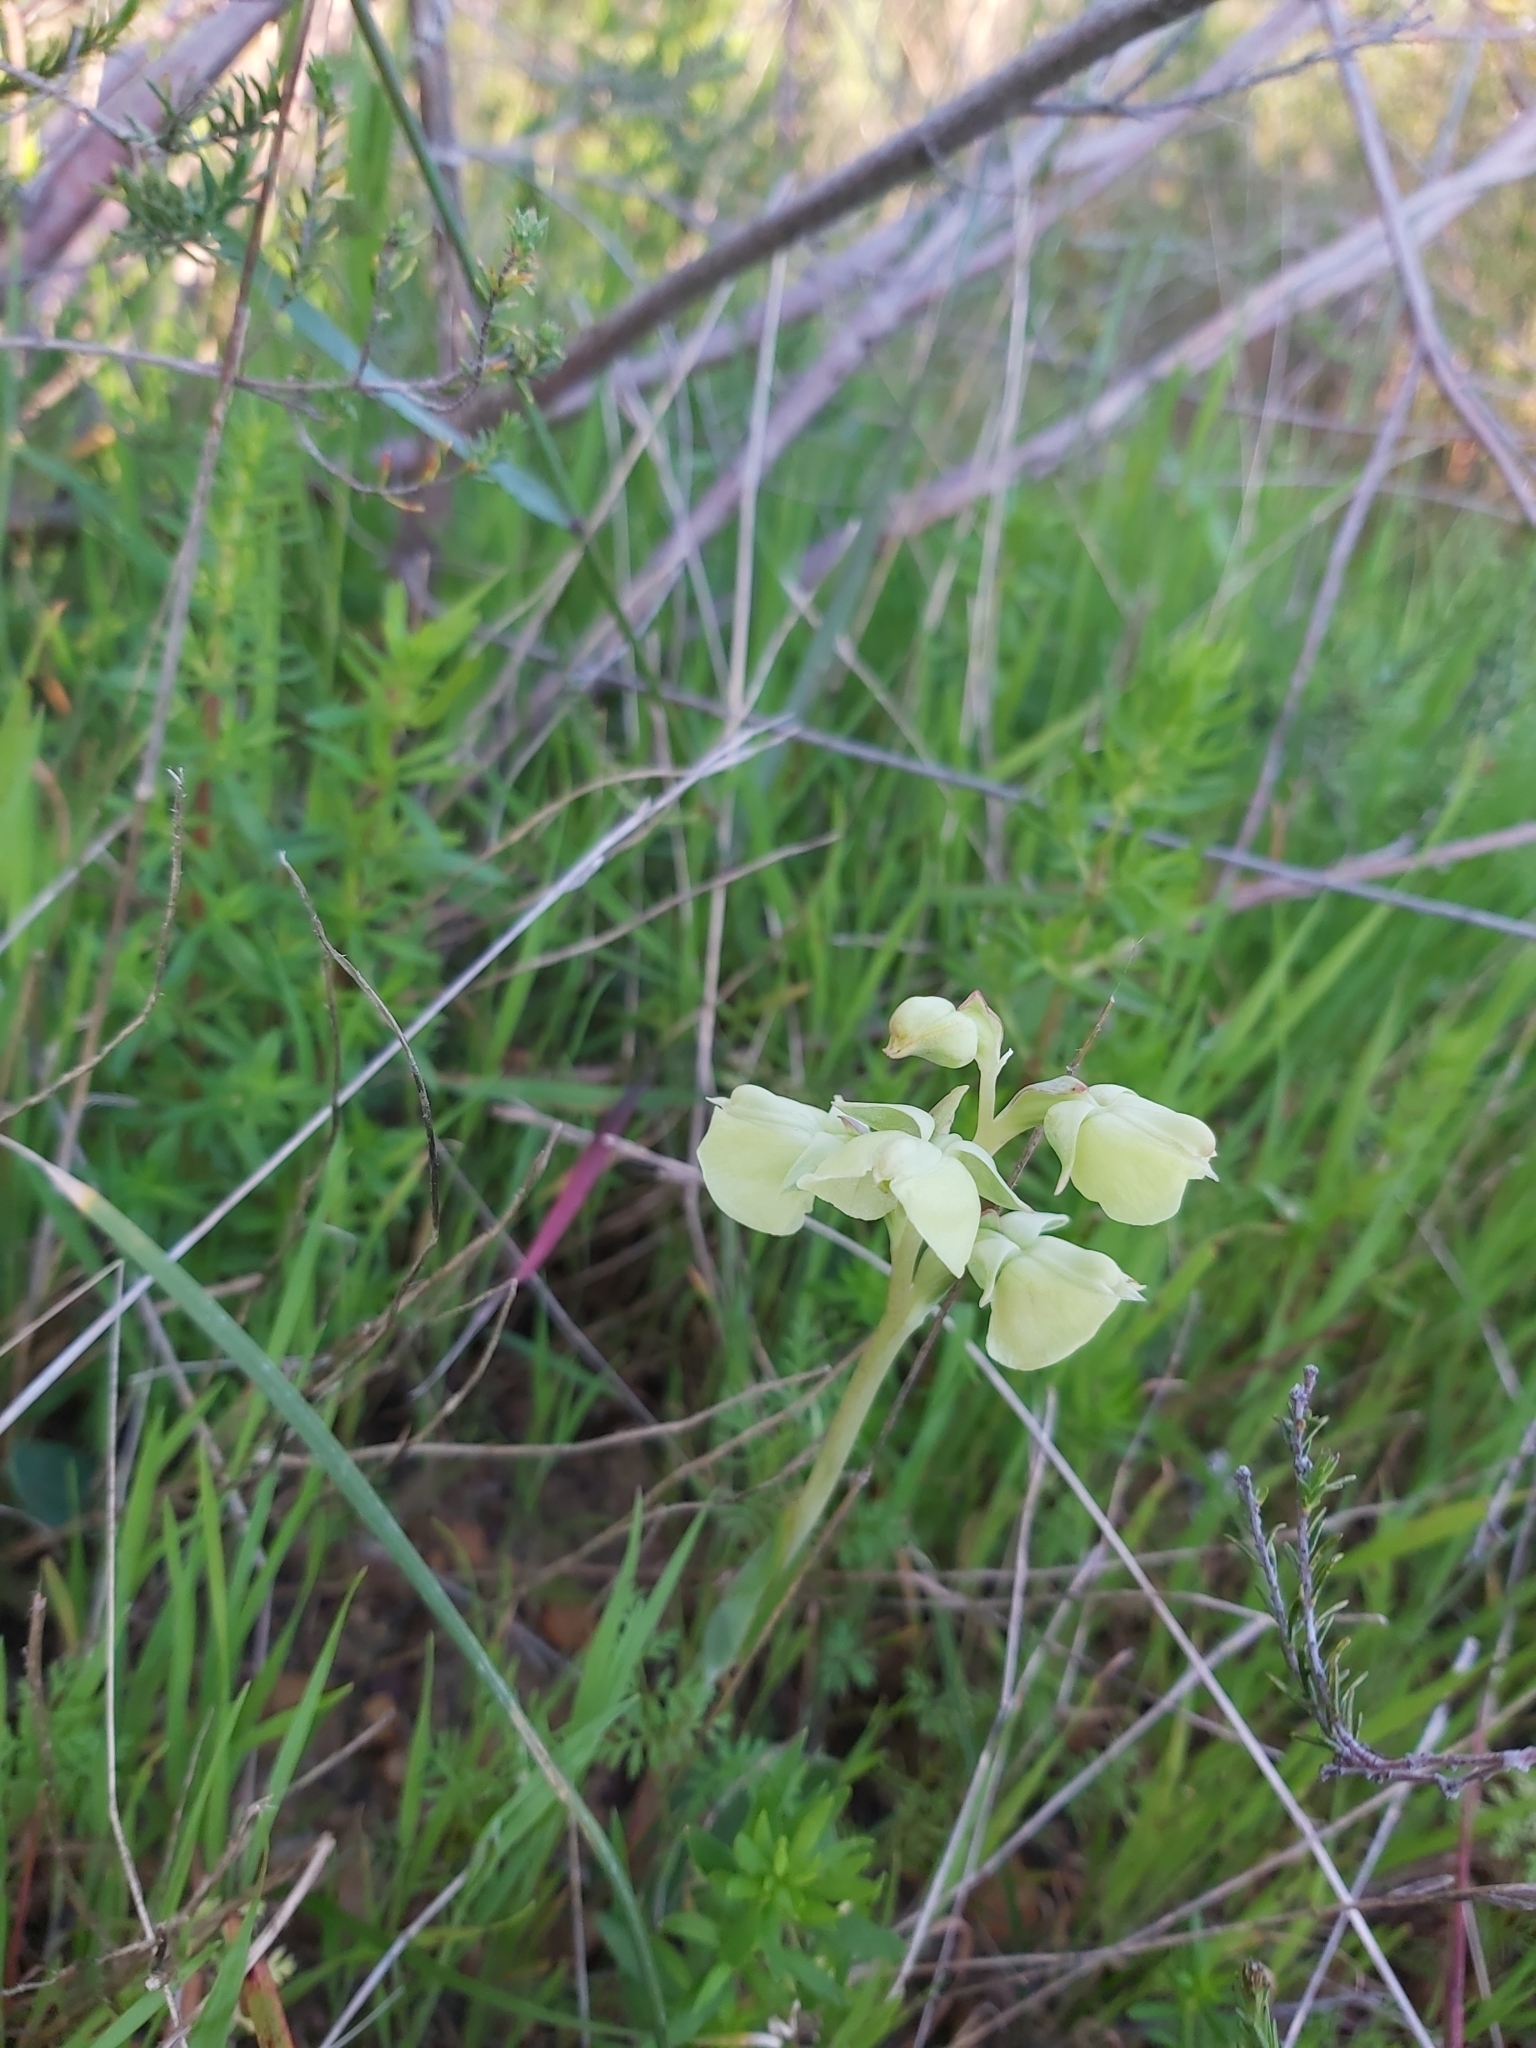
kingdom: Plantae
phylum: Tracheophyta
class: Liliopsida
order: Asparagales
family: Orchidaceae
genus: Pterygodium
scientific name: Pterygodium catholicum
